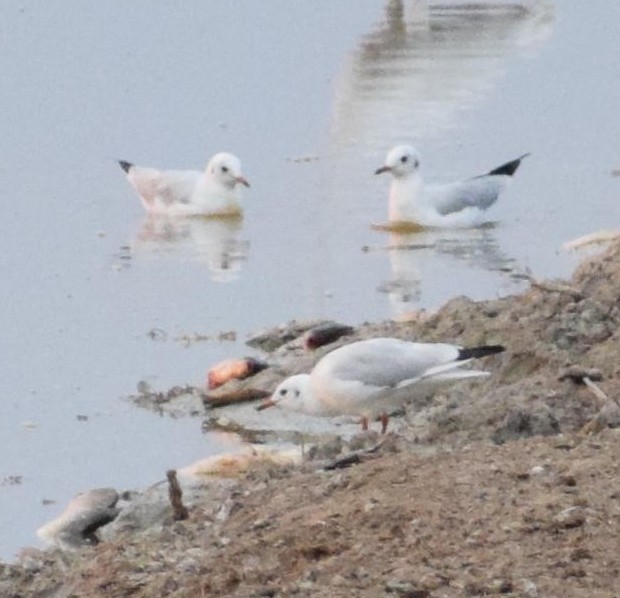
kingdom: Animalia
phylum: Chordata
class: Aves
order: Charadriiformes
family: Laridae
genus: Chroicocephalus
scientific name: Chroicocephalus ridibundus
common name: Black-headed gull
